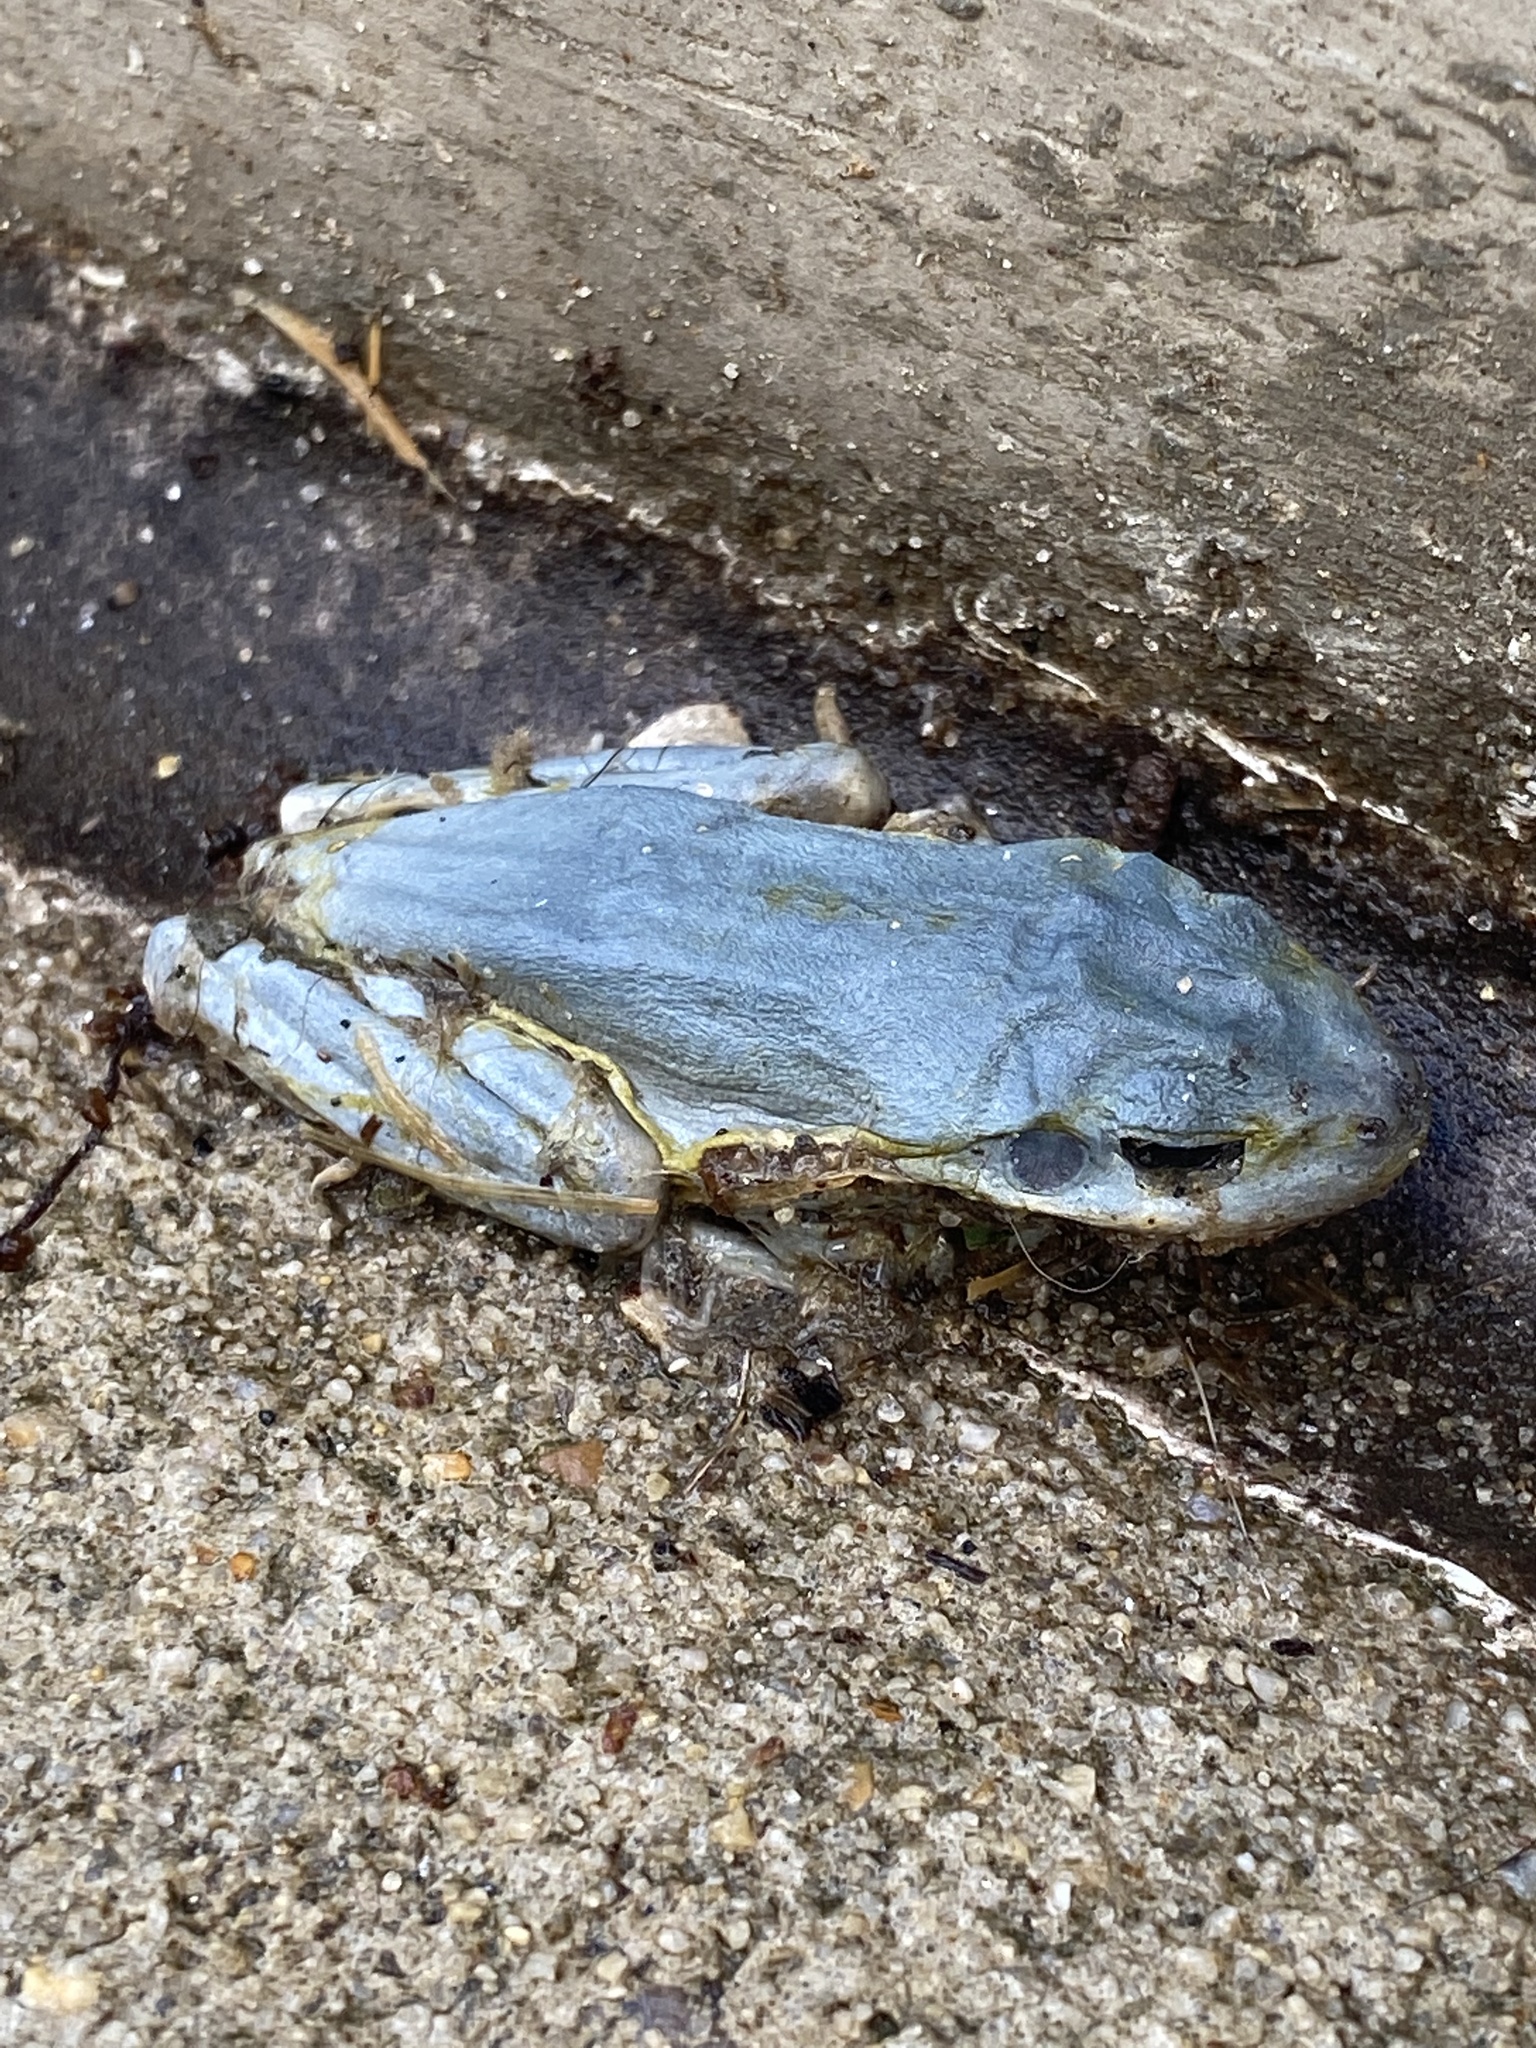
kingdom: Animalia
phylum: Chordata
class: Amphibia
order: Anura
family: Hylidae
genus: Dryophytes
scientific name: Dryophytes cinereus
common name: Green treefrog
